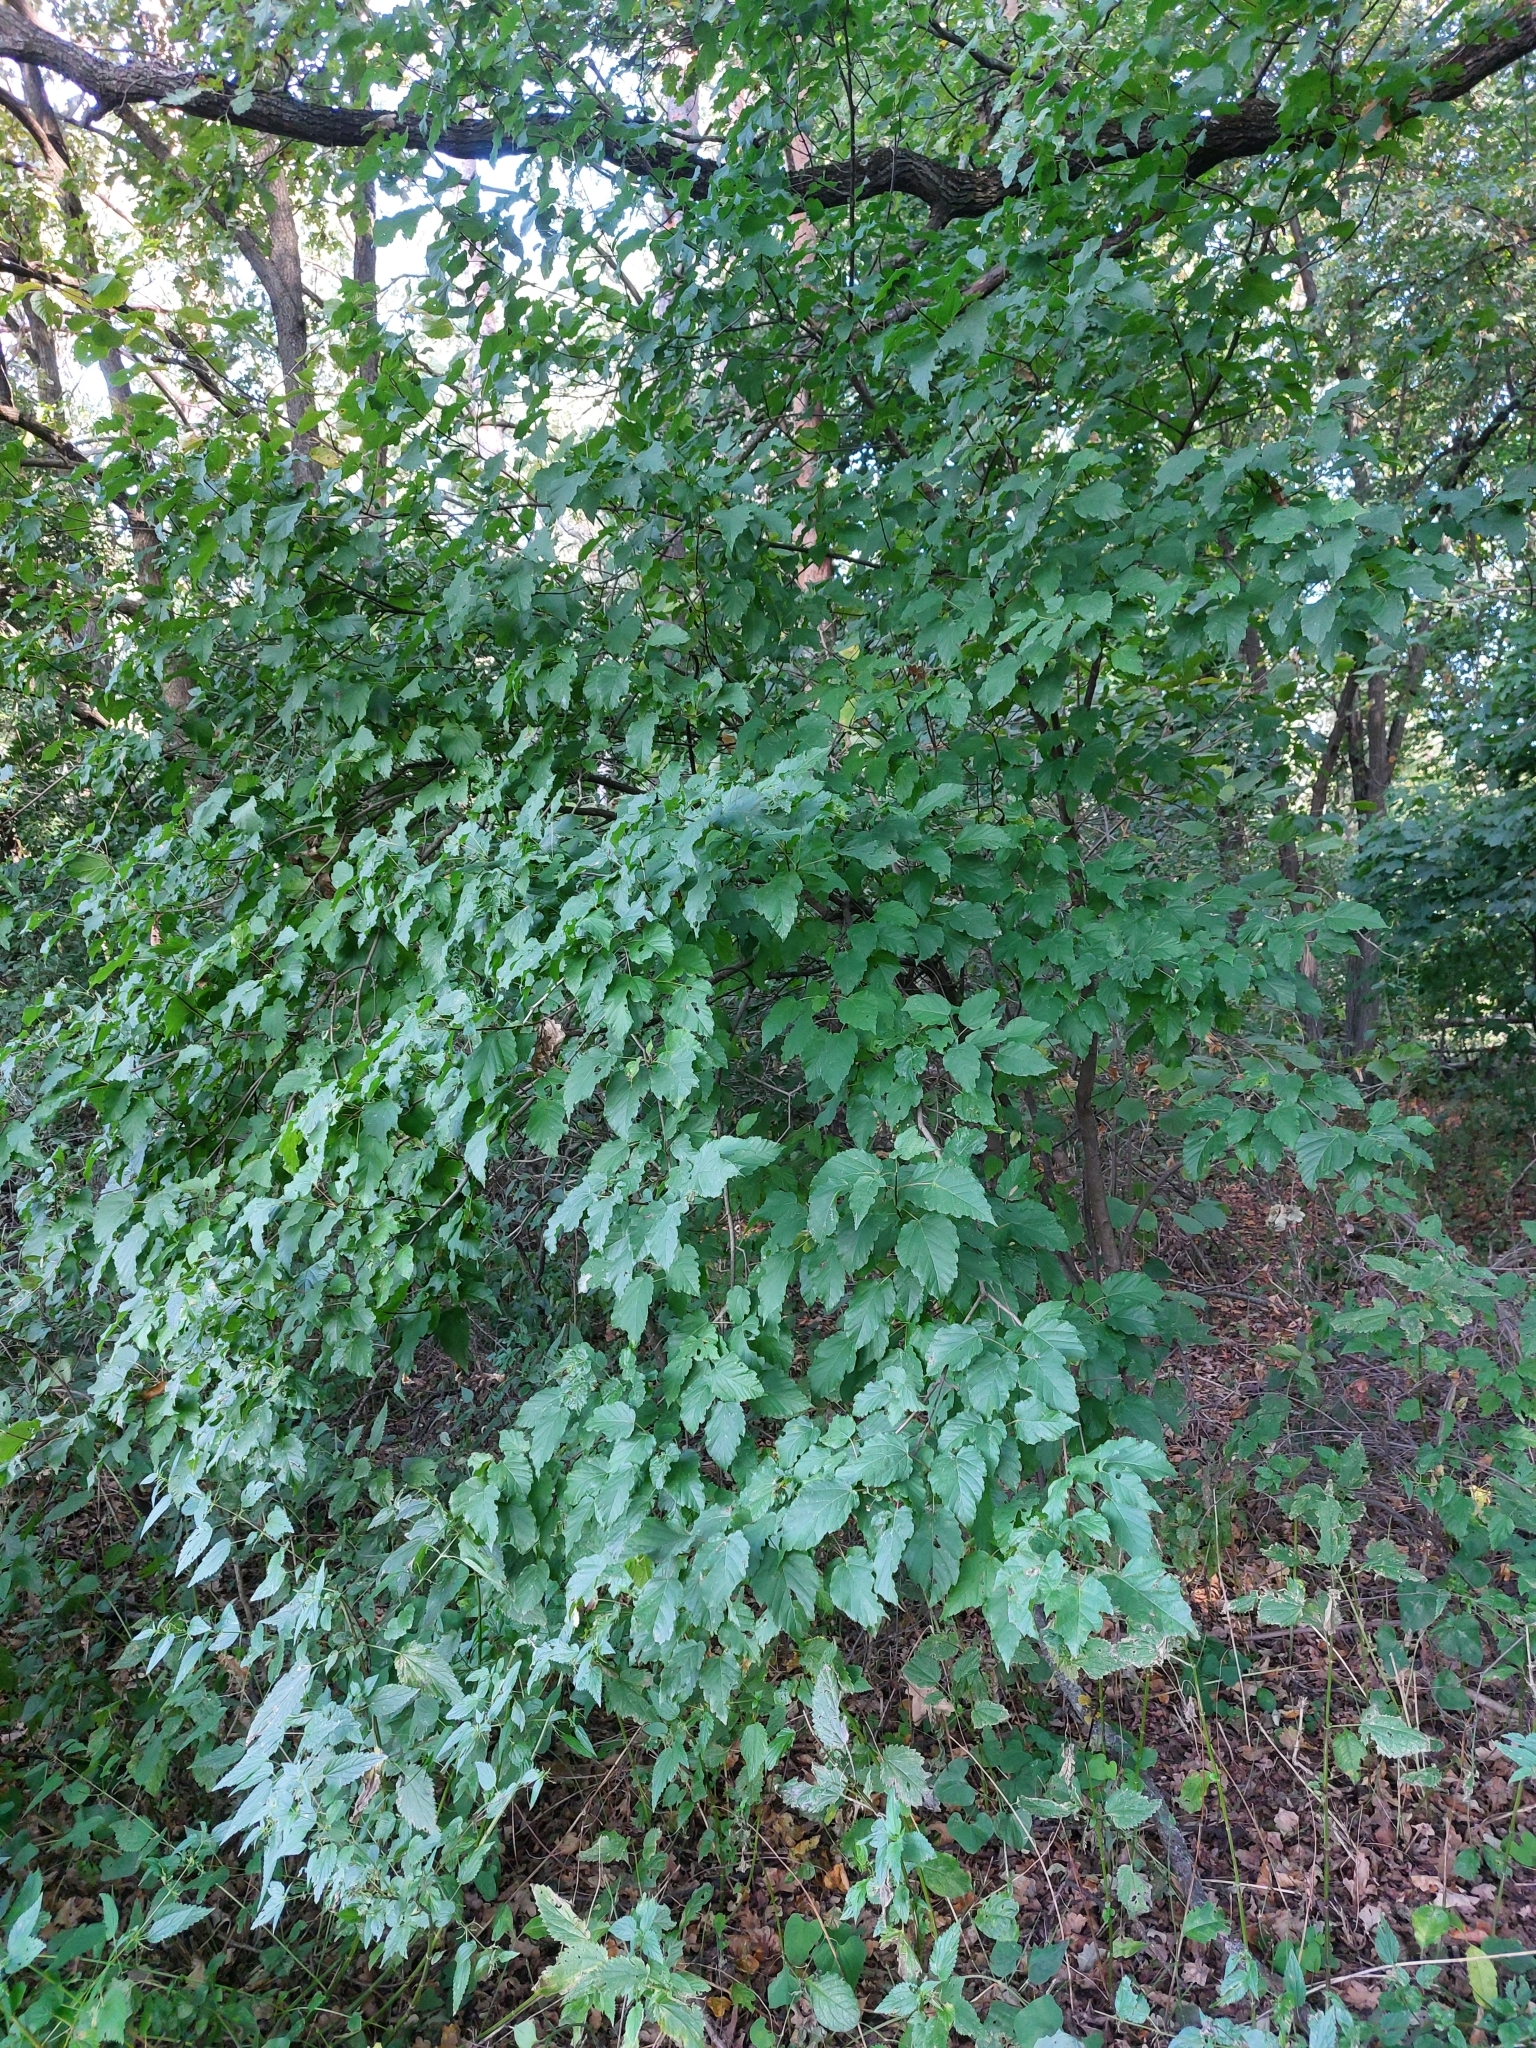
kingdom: Plantae
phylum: Tracheophyta
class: Magnoliopsida
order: Sapindales
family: Sapindaceae
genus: Acer
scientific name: Acer tataricum
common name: Tartar maple
